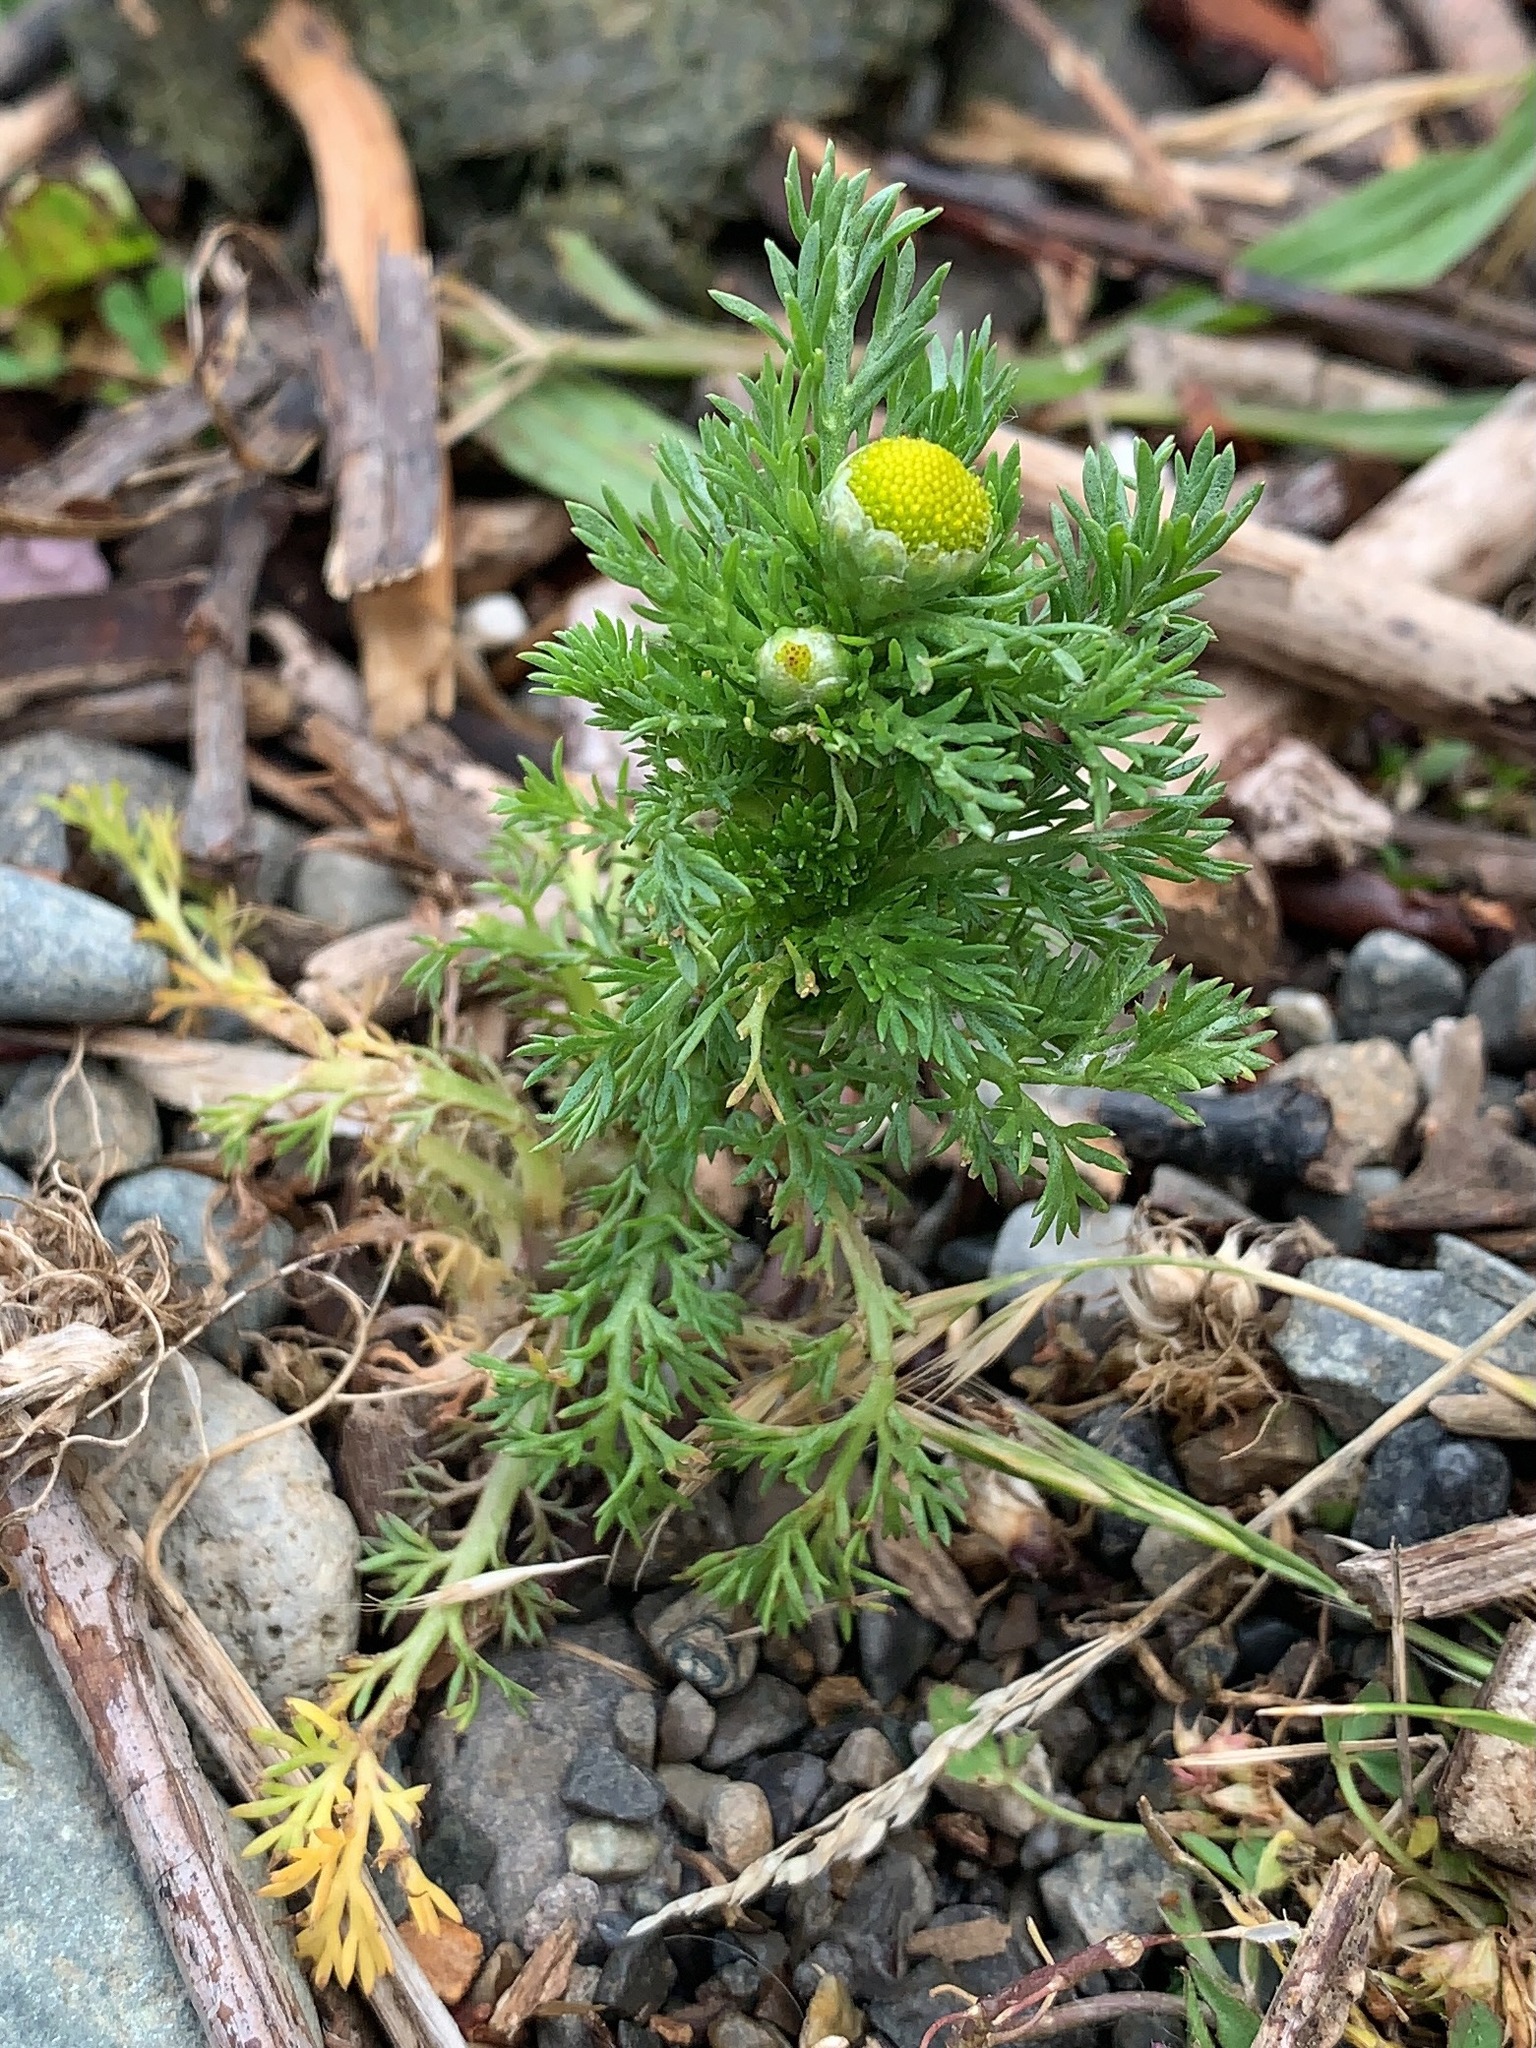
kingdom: Plantae
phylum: Tracheophyta
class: Magnoliopsida
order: Asterales
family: Asteraceae
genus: Matricaria
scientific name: Matricaria discoidea
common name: Disc mayweed
